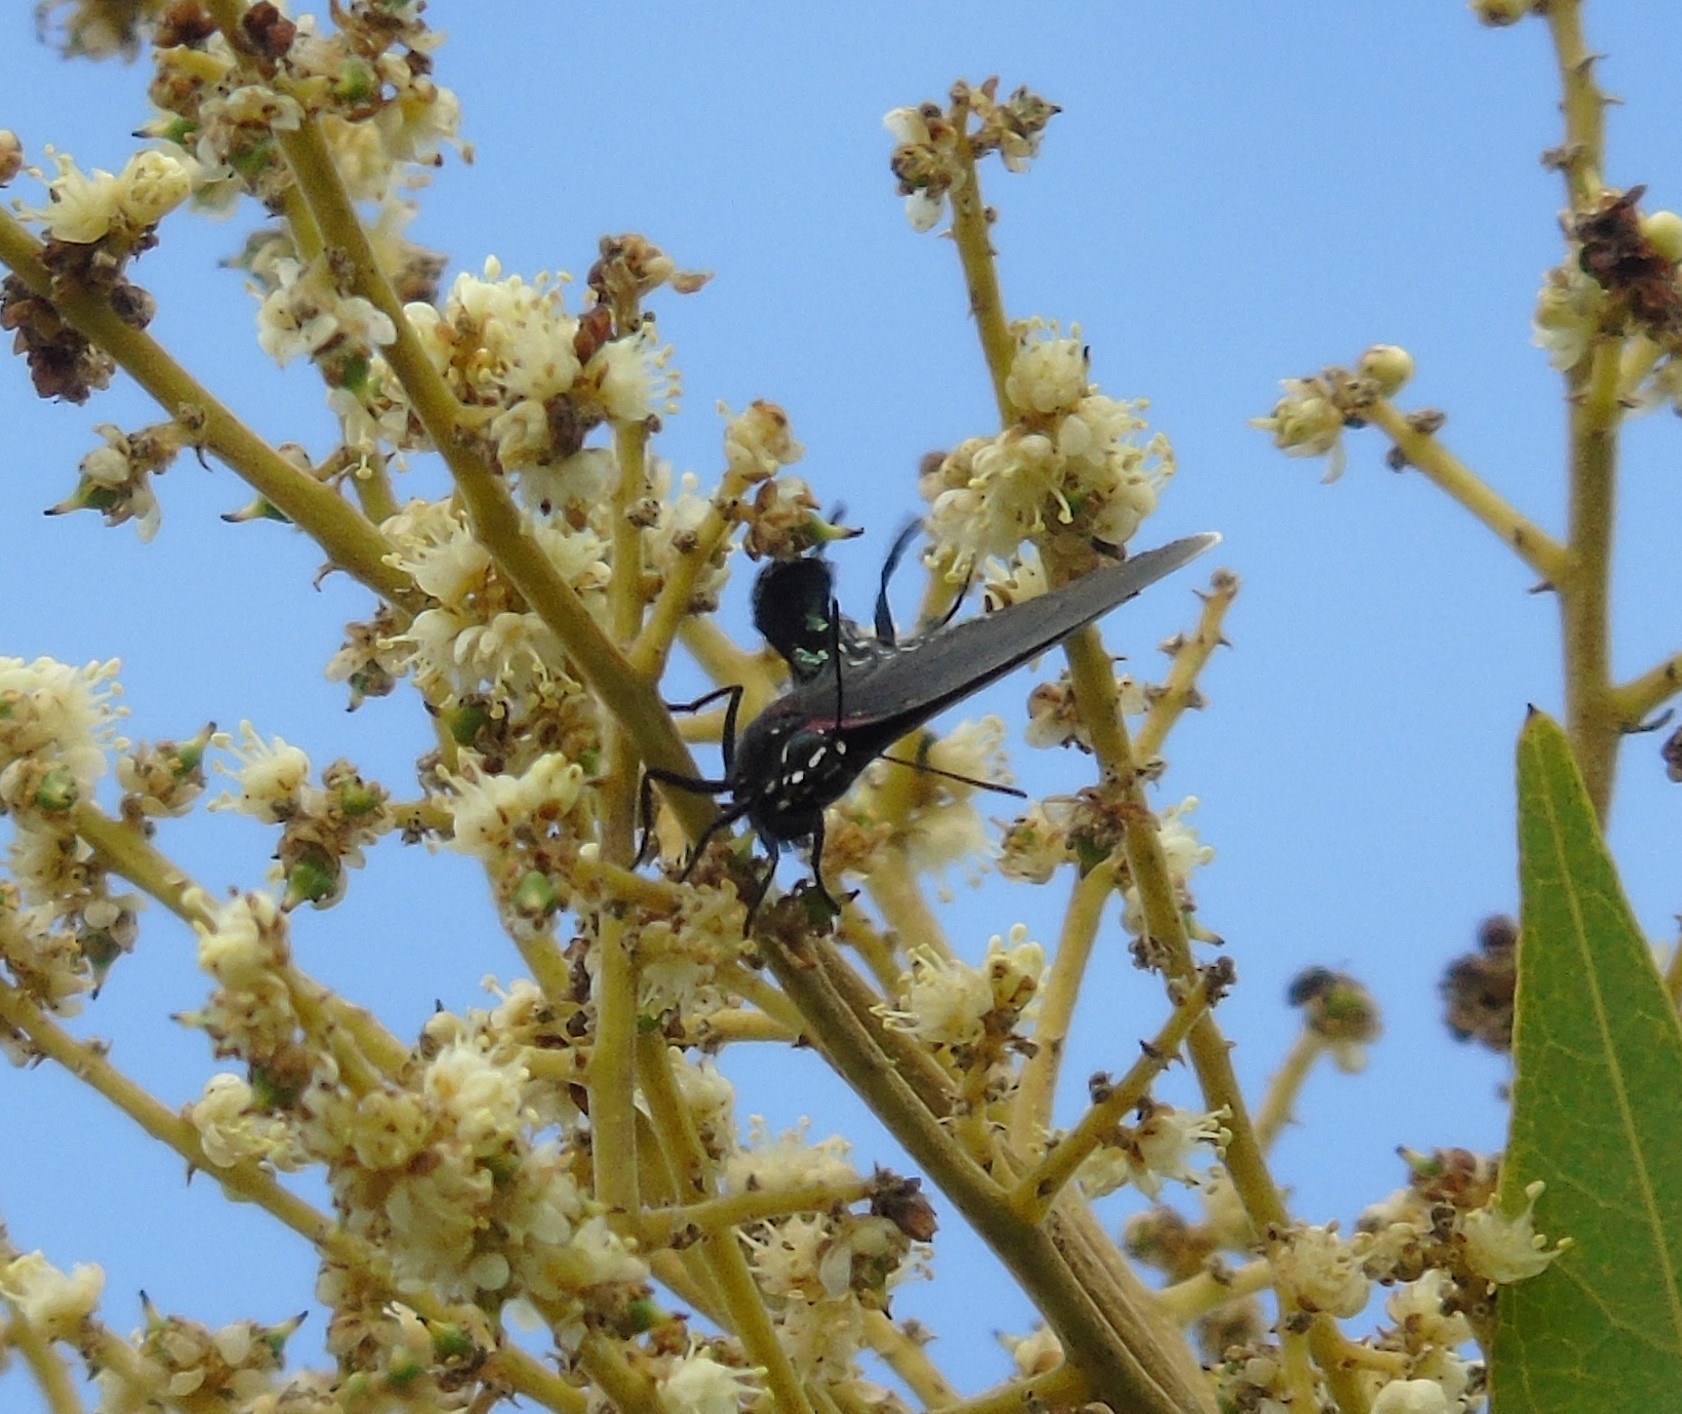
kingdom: Animalia
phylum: Arthropoda
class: Insecta
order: Lepidoptera
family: Lycaenidae
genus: Atlides
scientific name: Atlides
